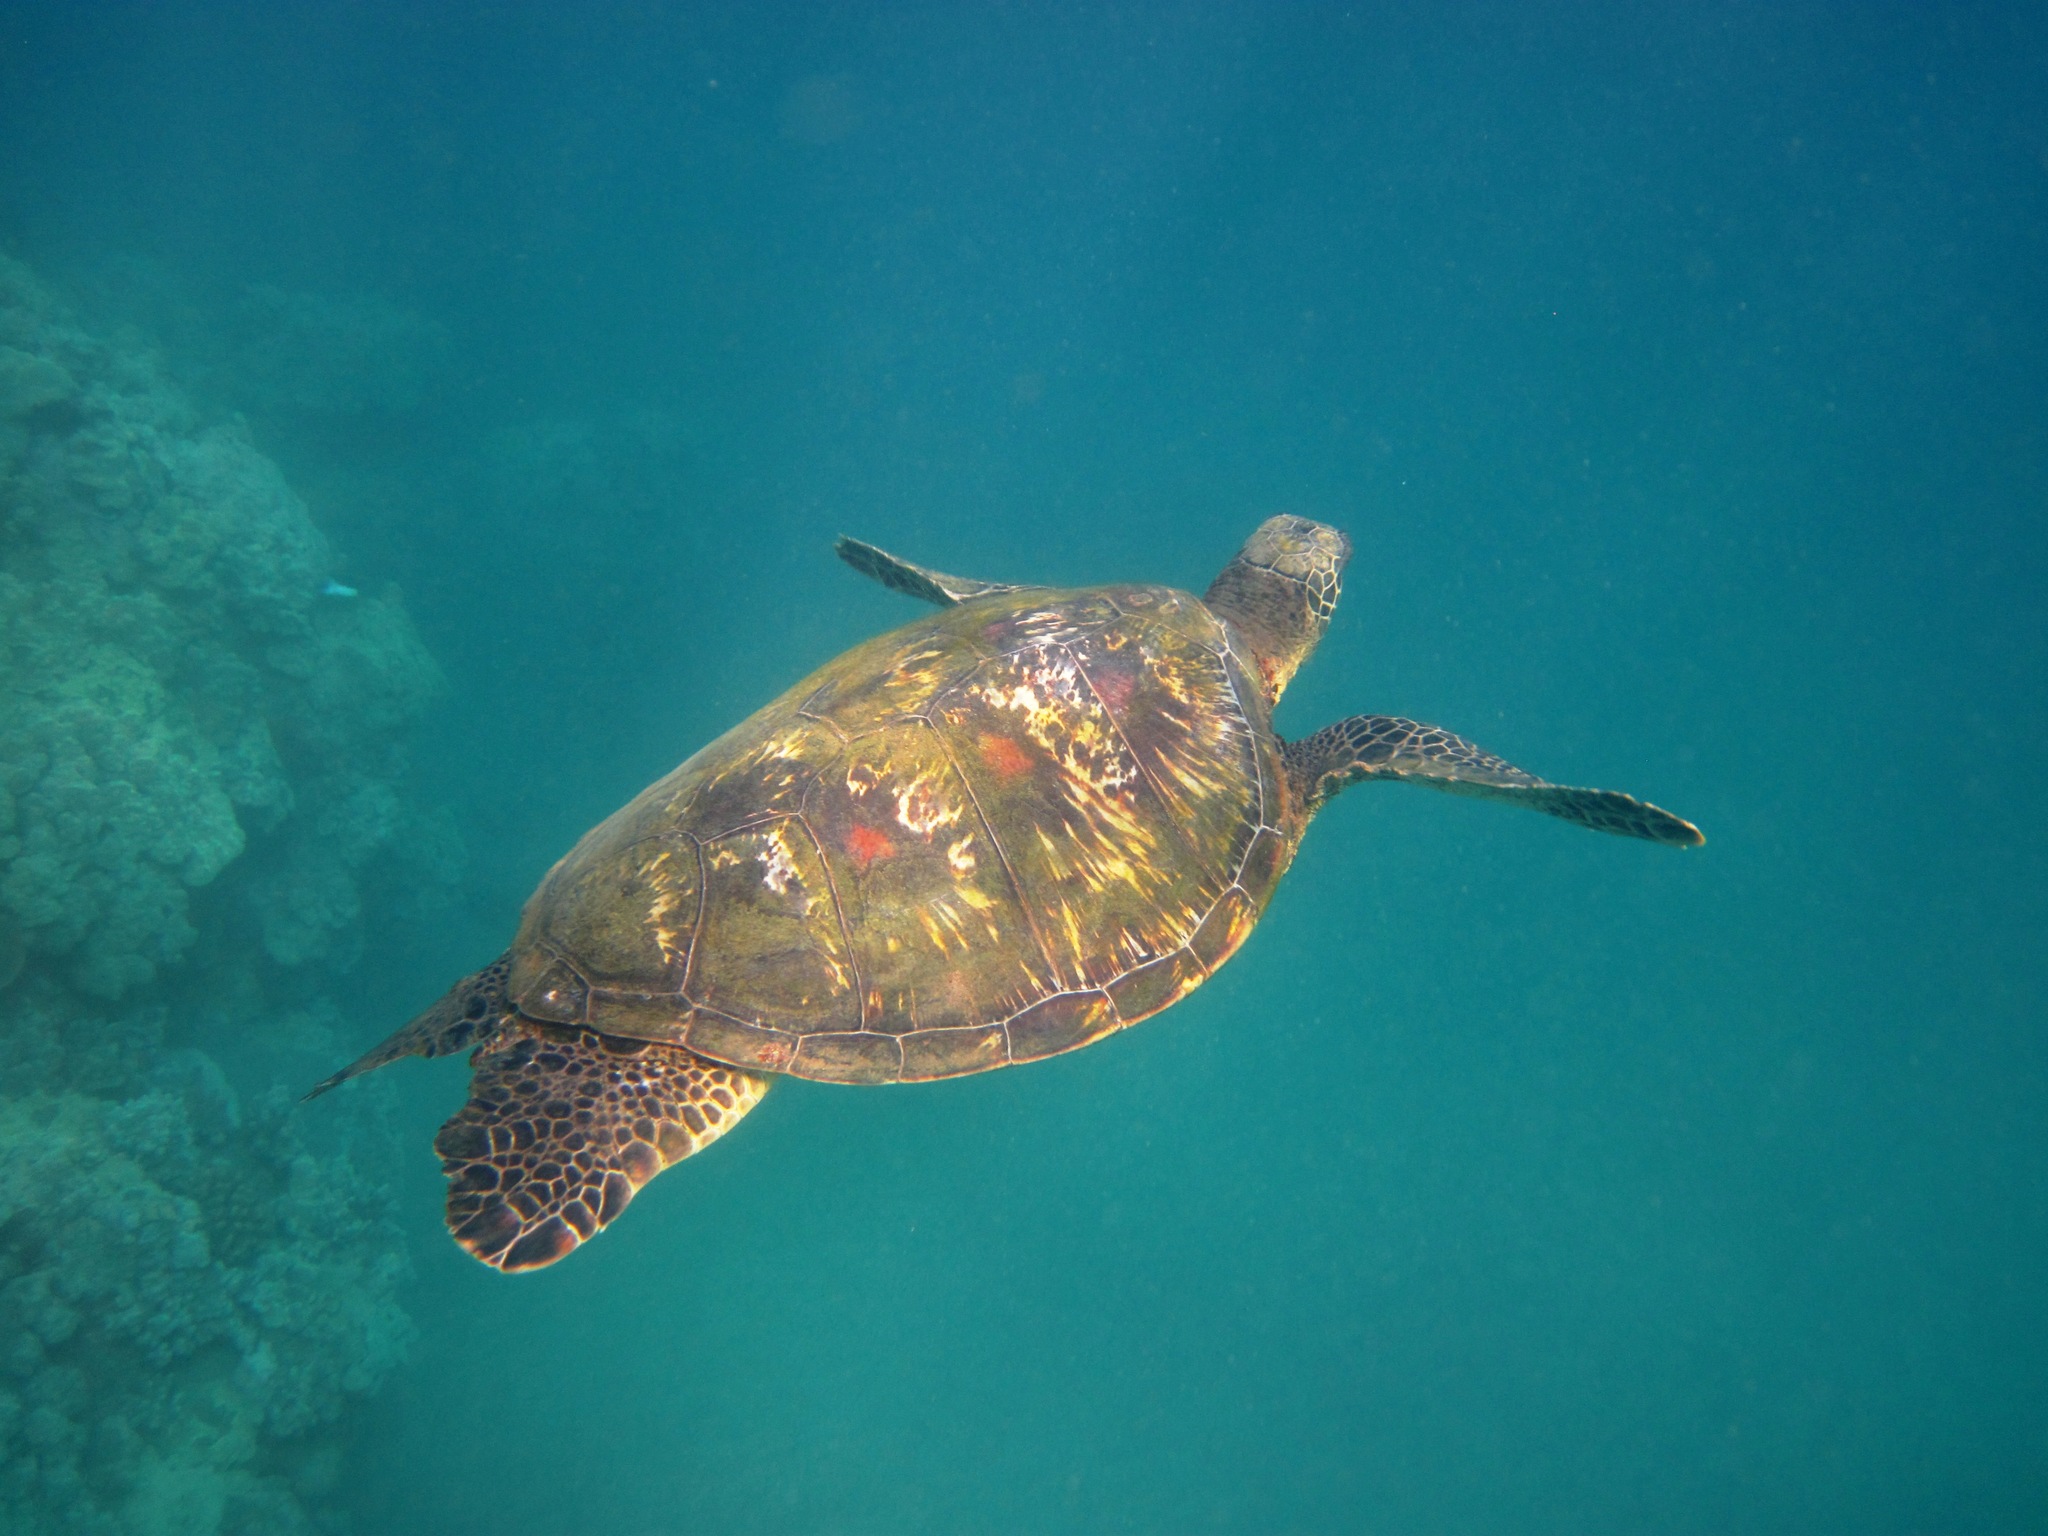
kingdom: Animalia
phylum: Chordata
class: Testudines
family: Cheloniidae
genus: Chelonia
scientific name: Chelonia mydas
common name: Green turtle
